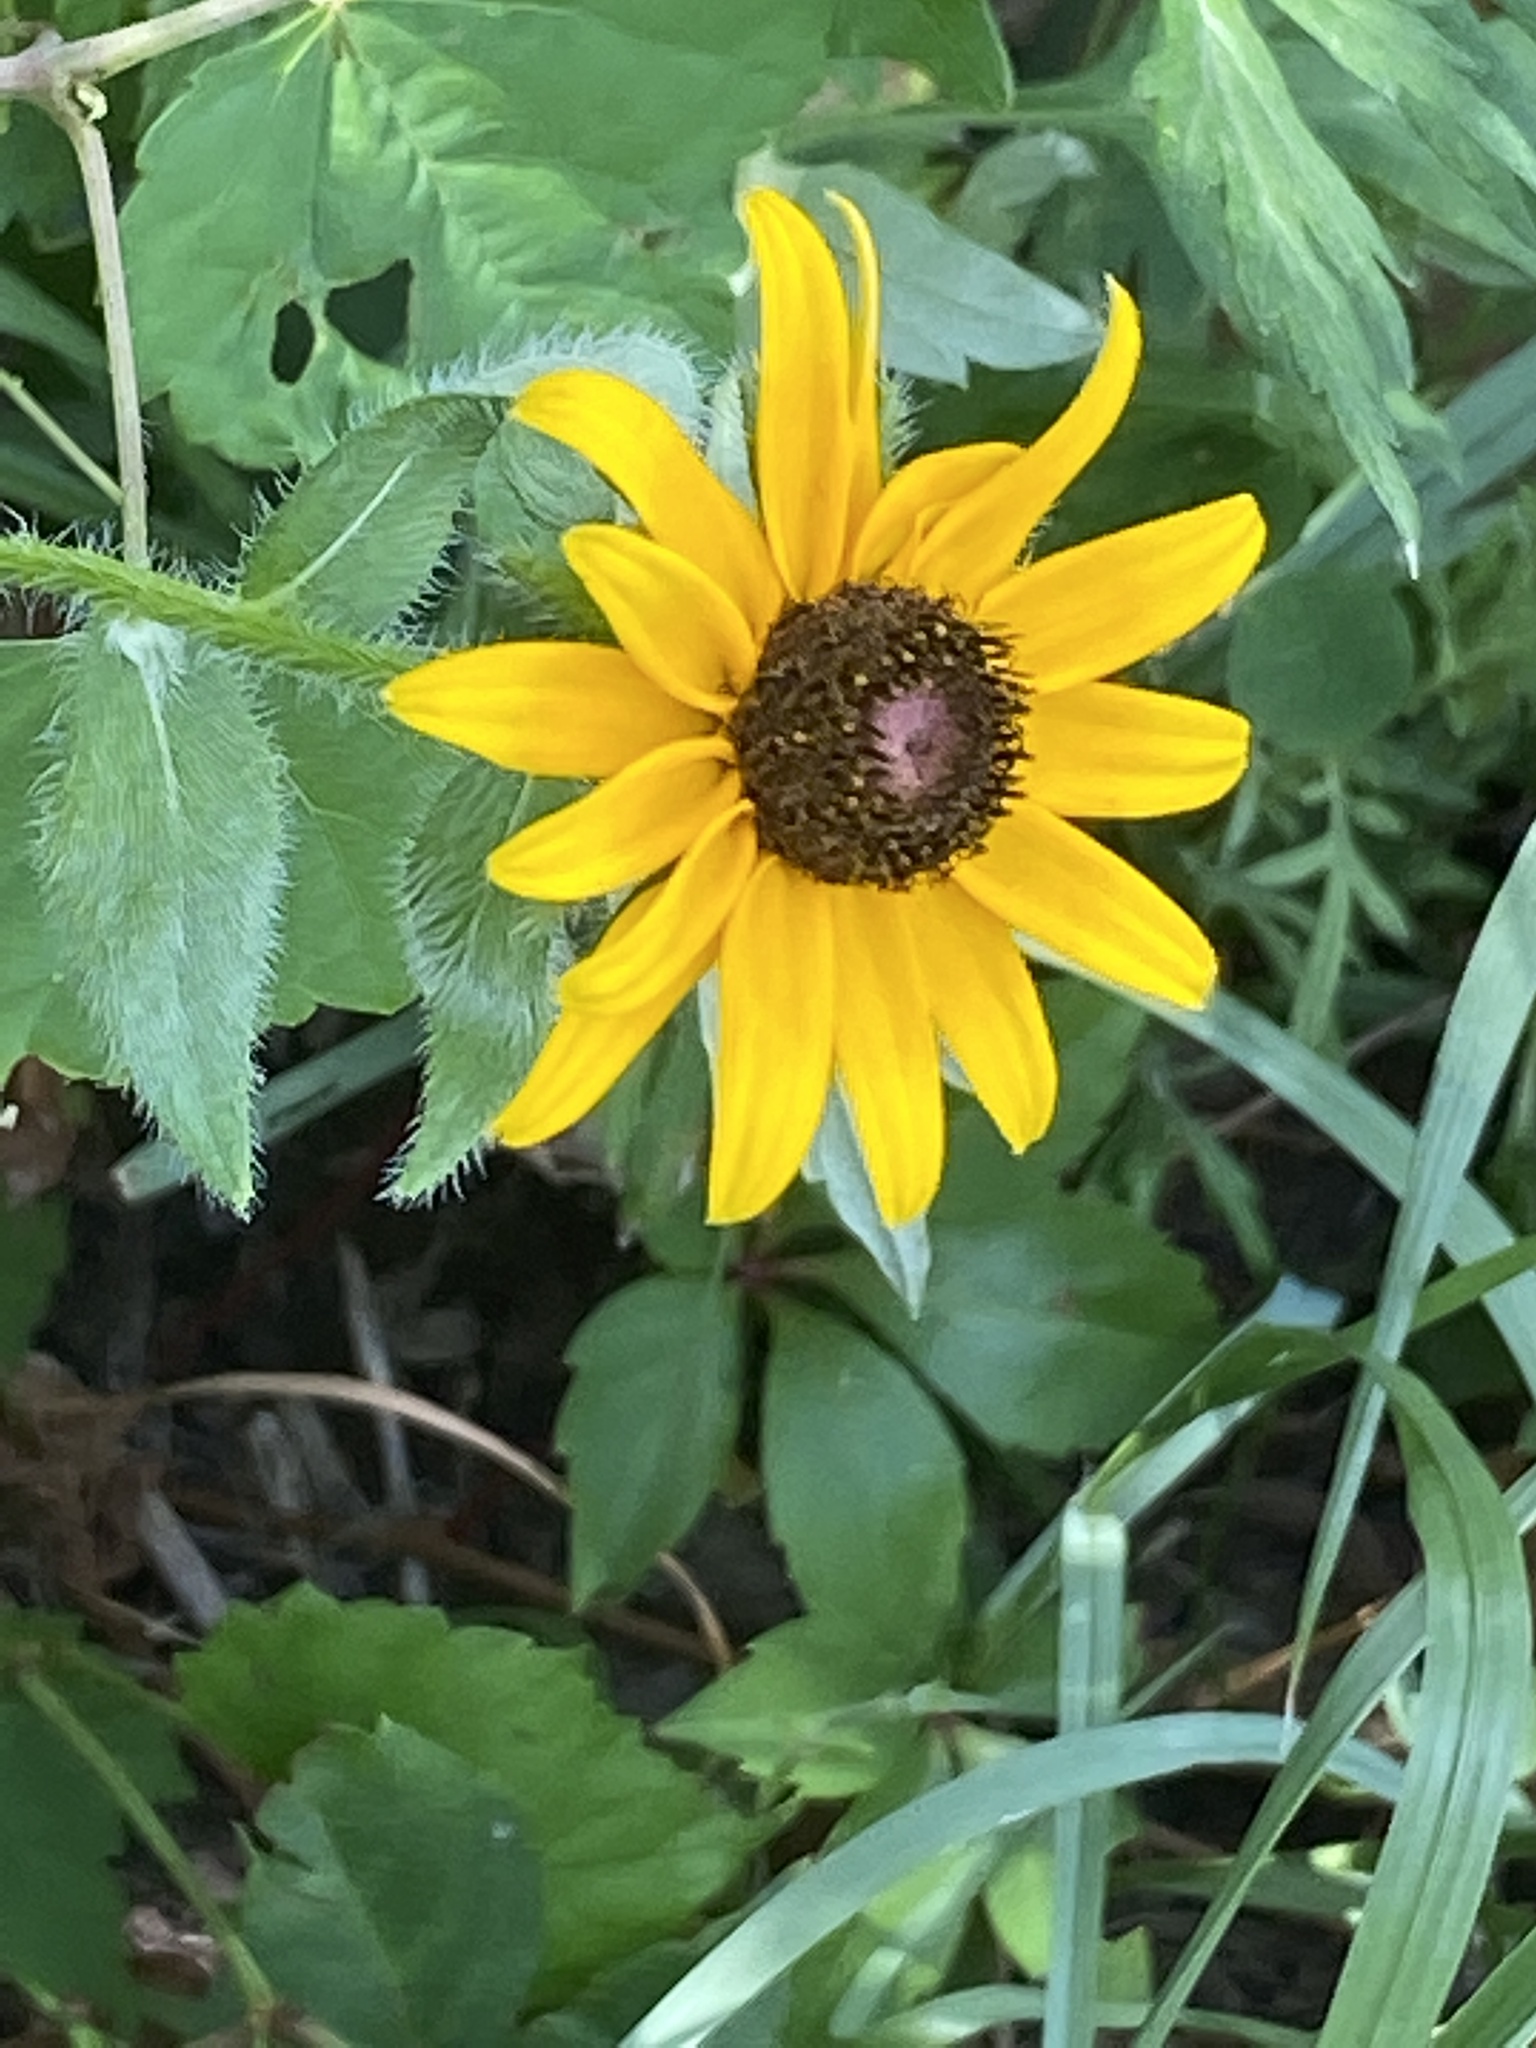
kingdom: Plantae
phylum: Tracheophyta
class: Magnoliopsida
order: Asterales
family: Asteraceae
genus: Rudbeckia
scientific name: Rudbeckia hirta
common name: Black-eyed-susan
